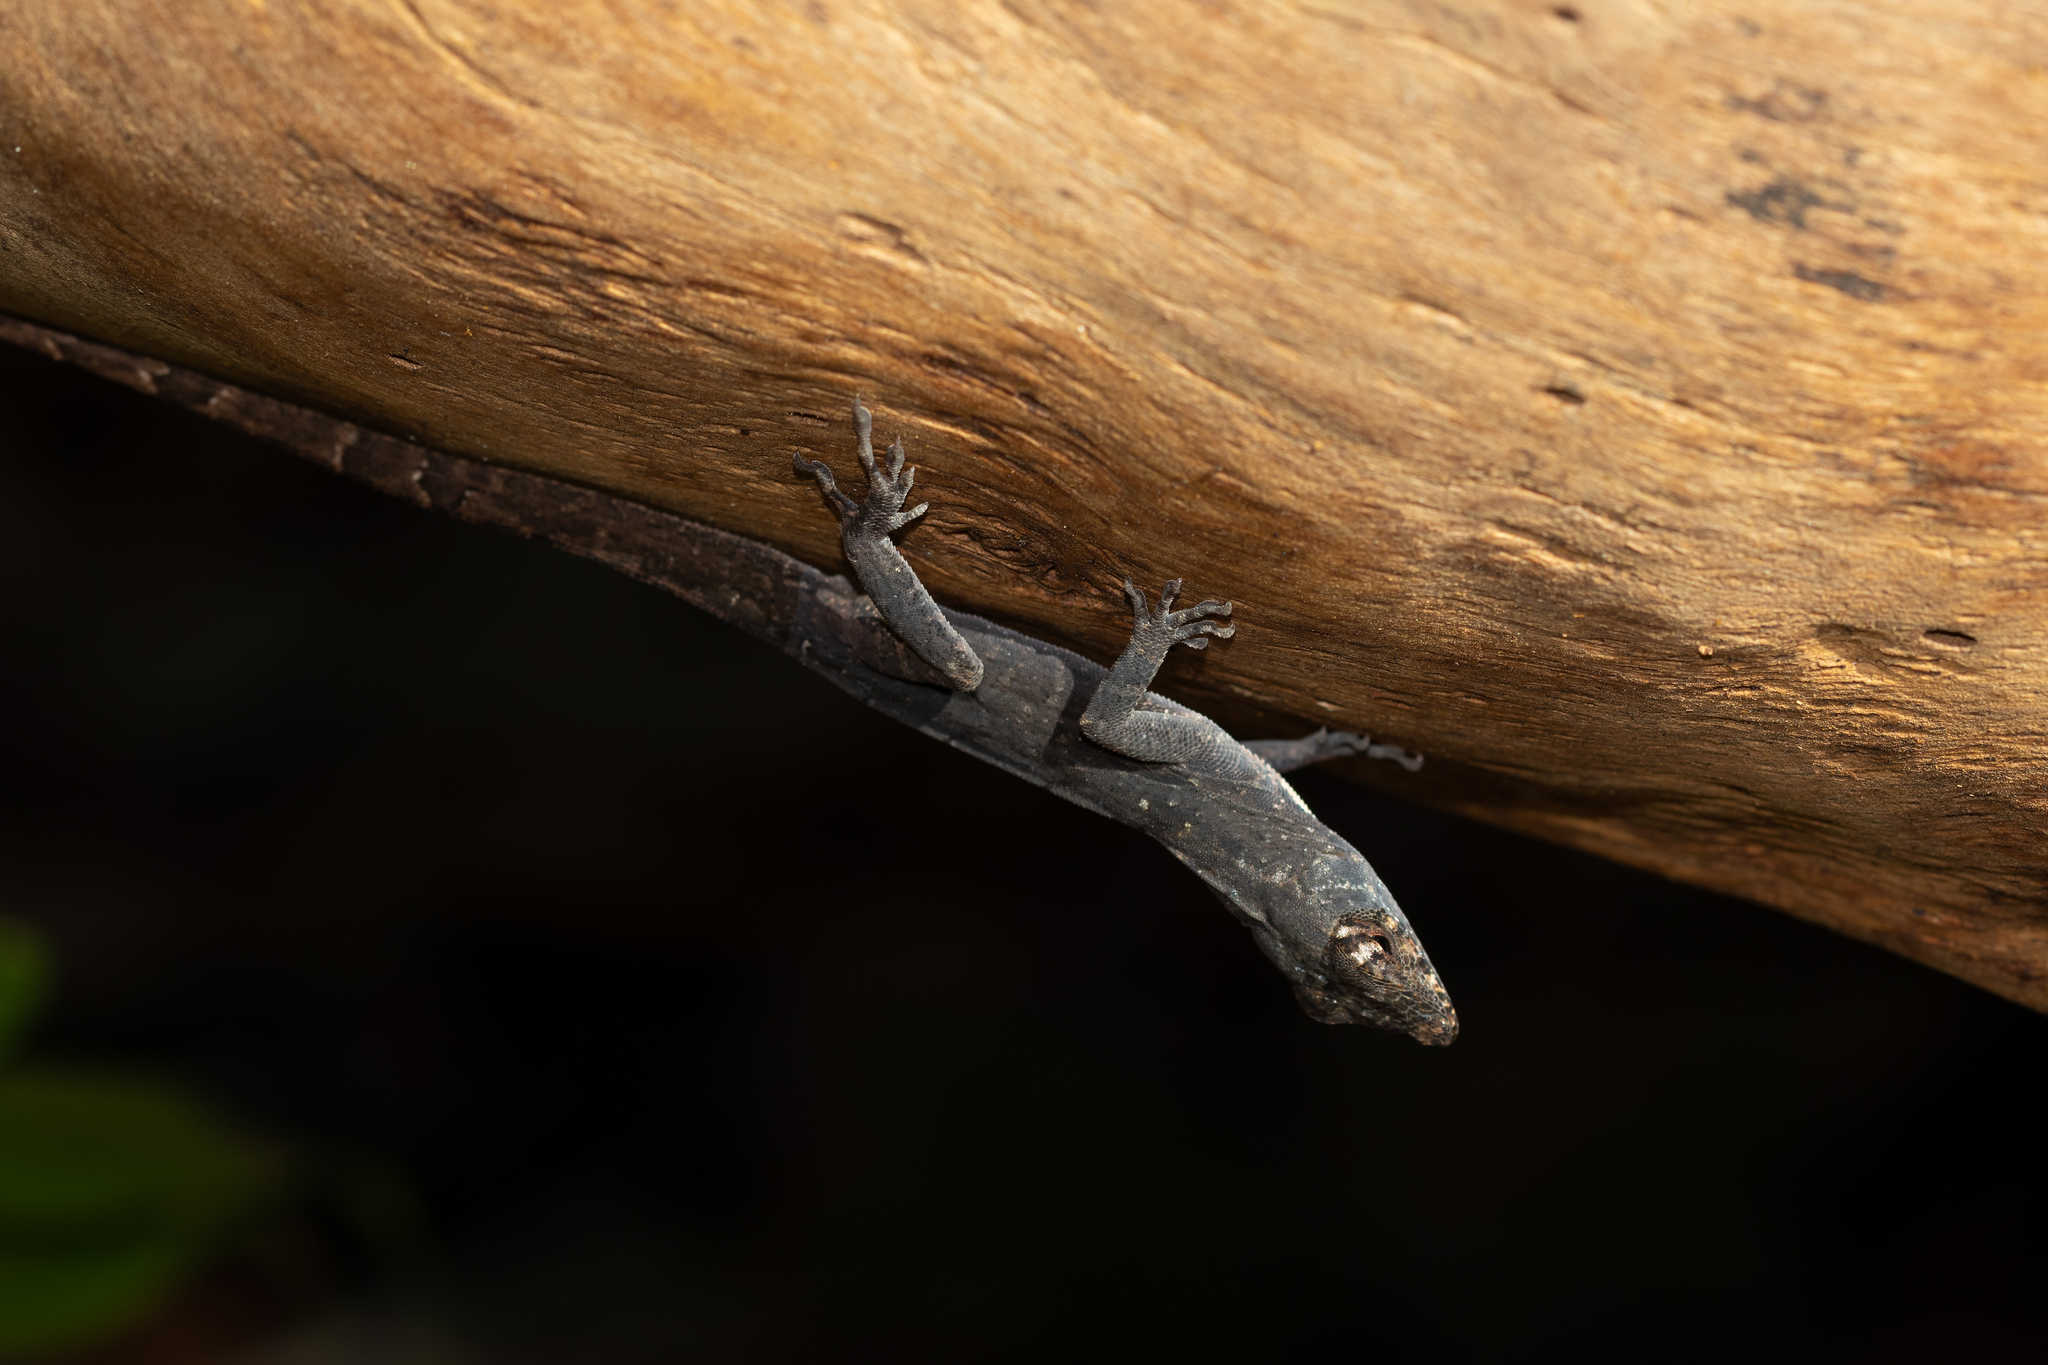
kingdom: Animalia
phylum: Chordata
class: Squamata
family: Dactyloidae
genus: Anolis
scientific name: Anolis sagrei
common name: Brown anole
